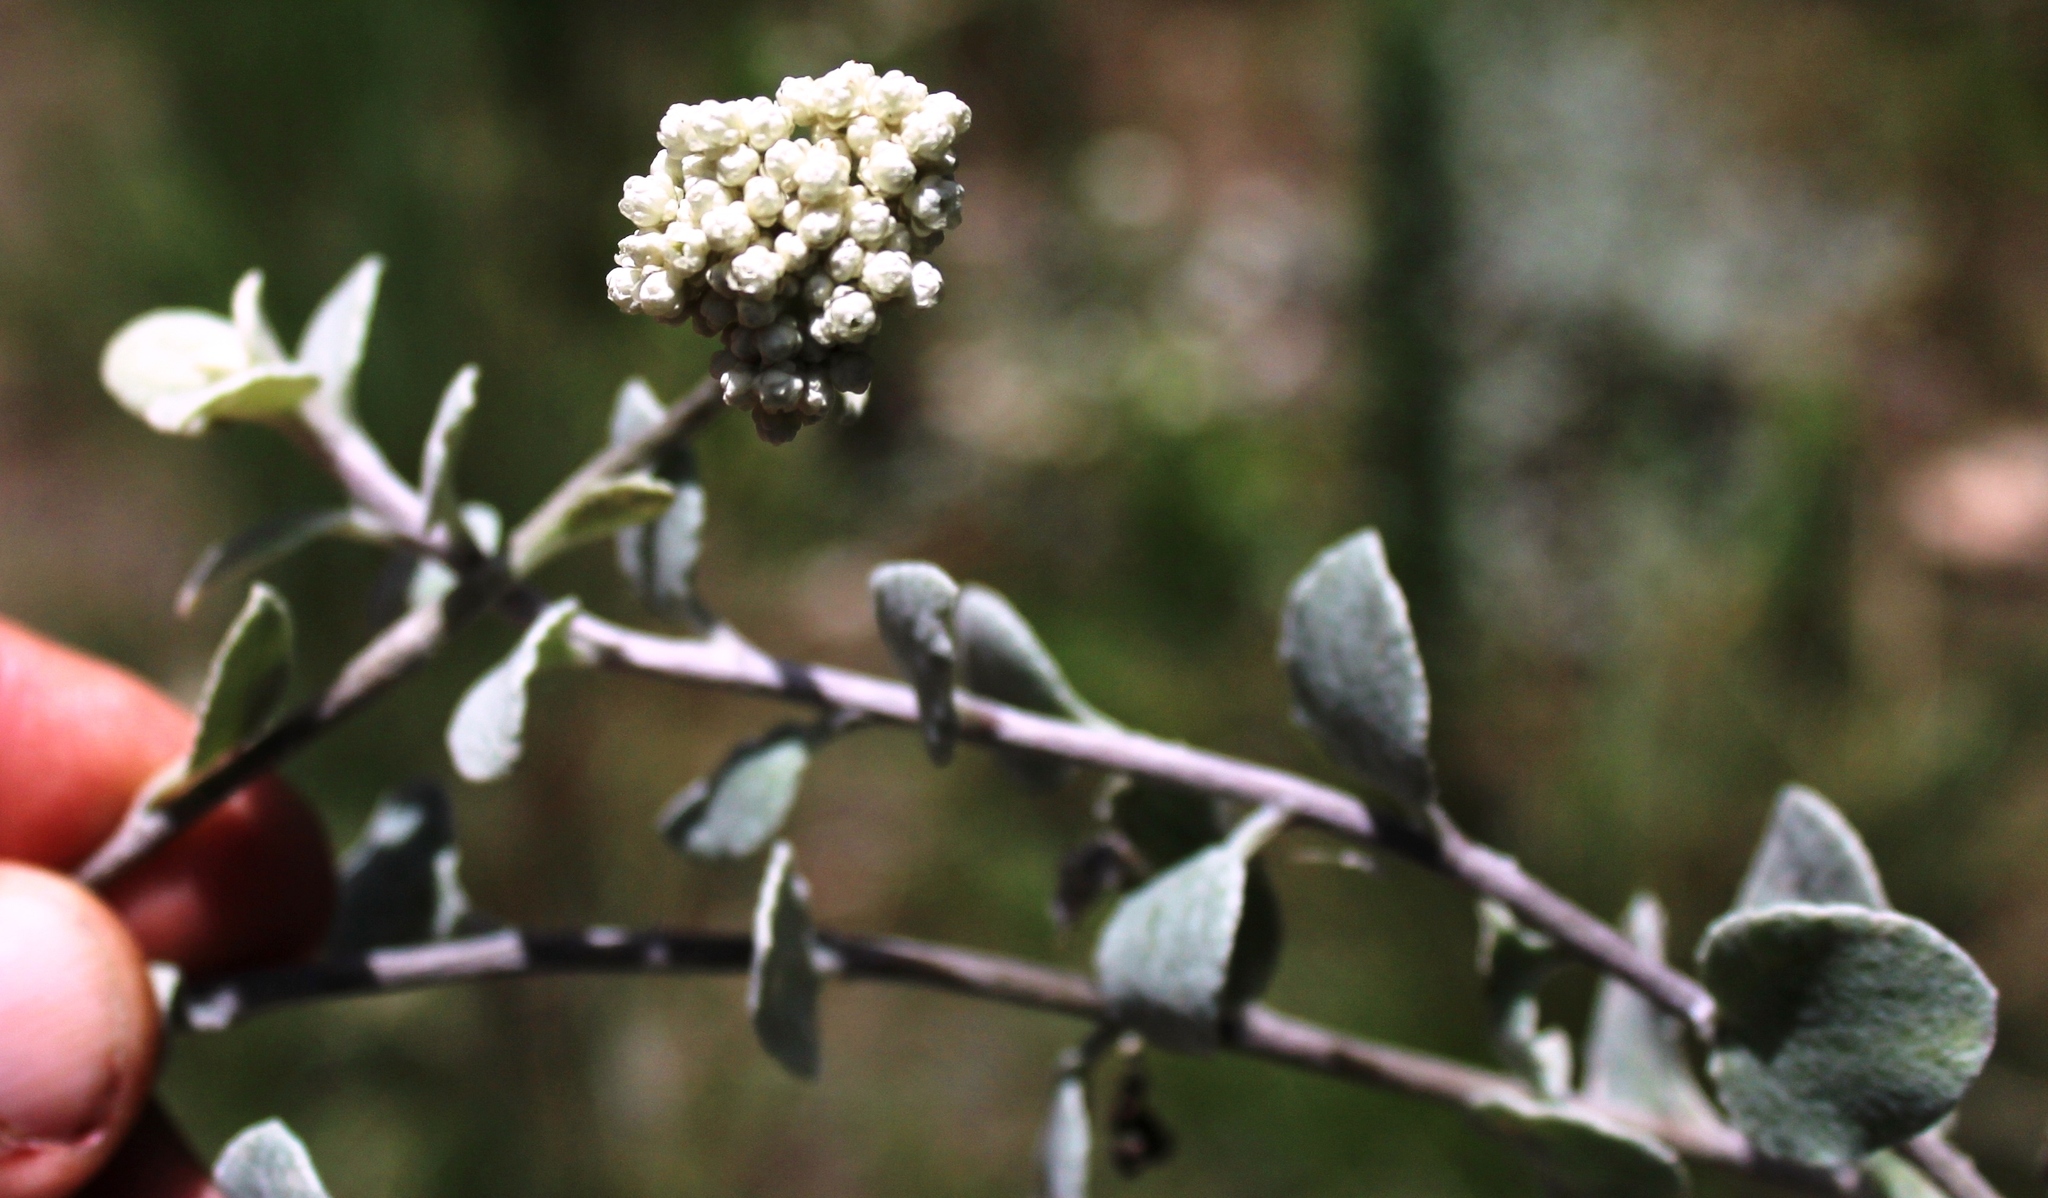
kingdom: Plantae
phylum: Tracheophyta
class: Magnoliopsida
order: Asterales
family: Asteraceae
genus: Helichrysum
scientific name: Helichrysum petiolare
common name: Licorice-plant
